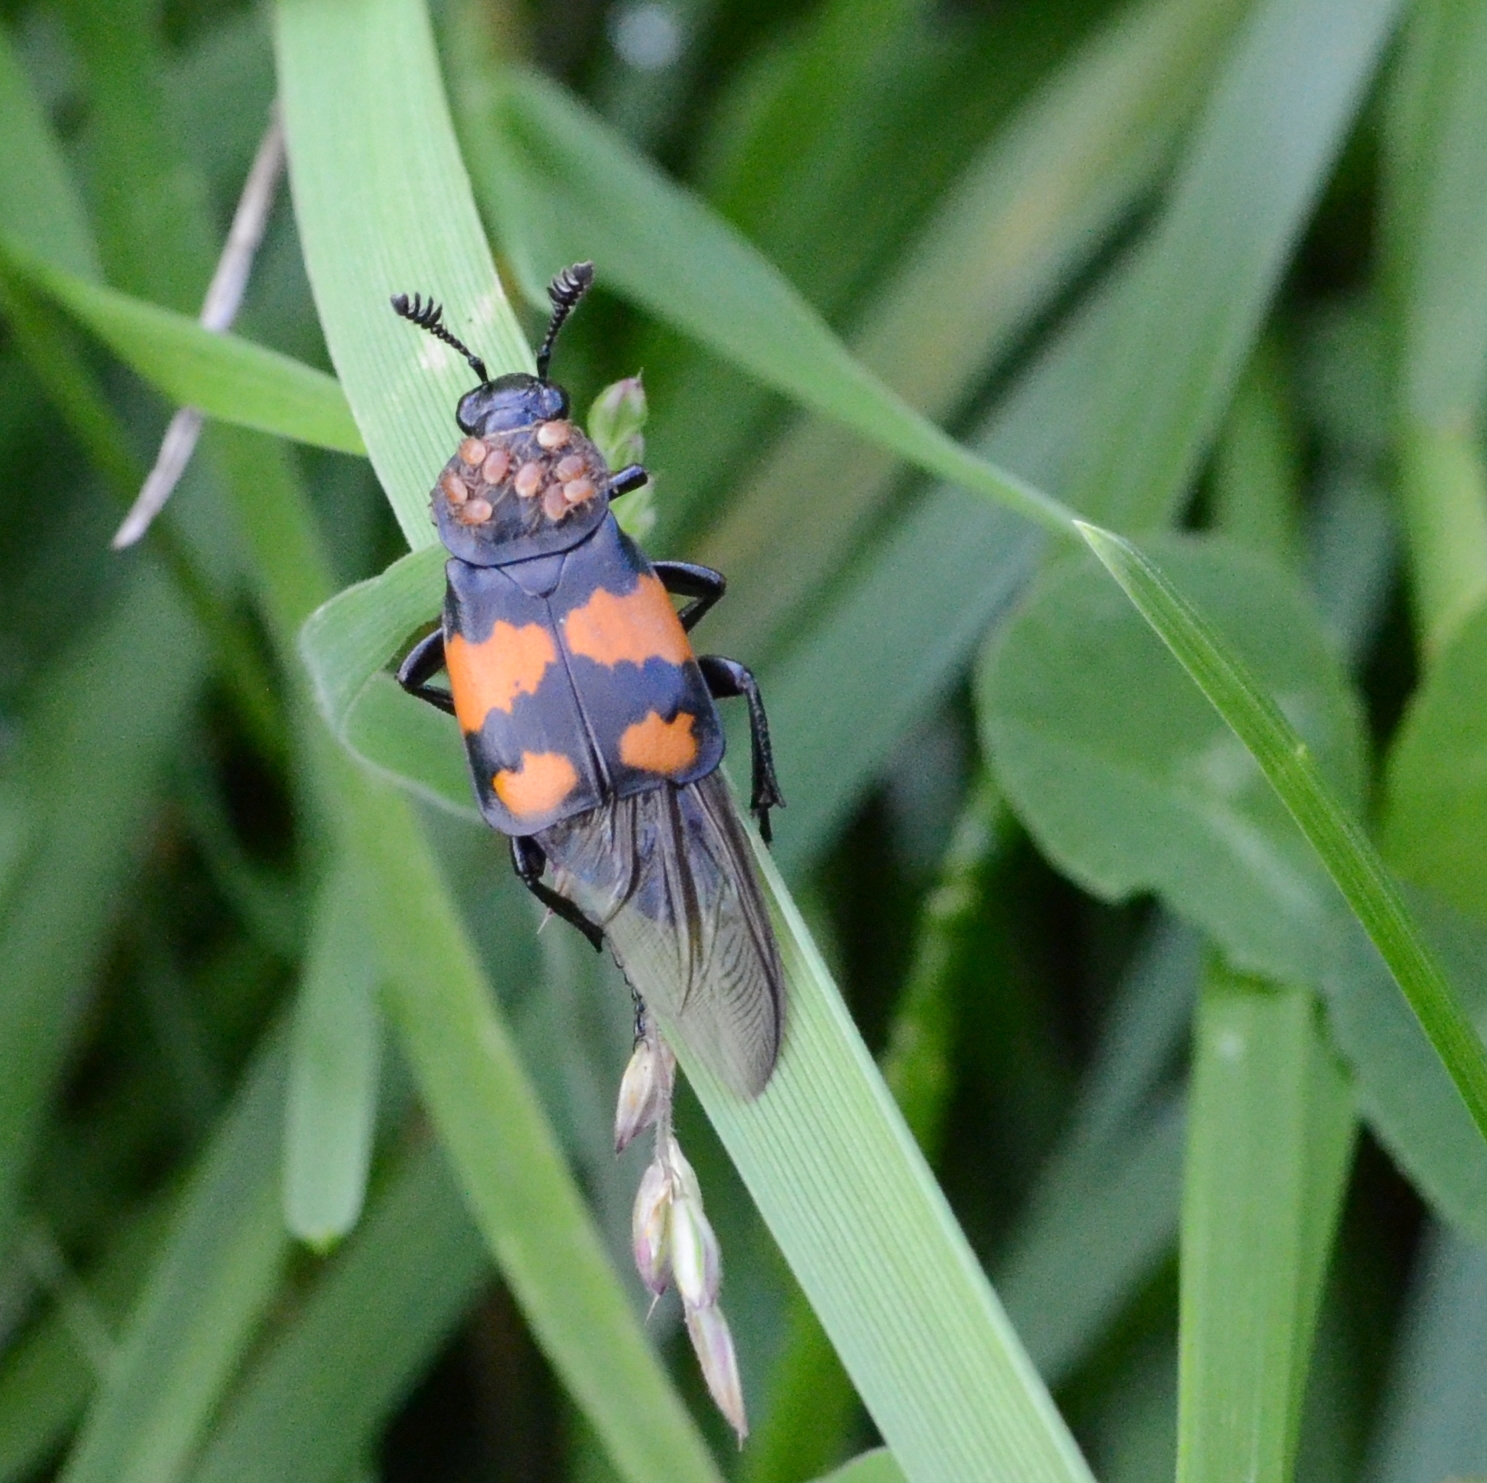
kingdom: Animalia
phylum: Arthropoda
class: Insecta
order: Coleoptera
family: Staphylinidae
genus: Nicrophorus
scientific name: Nicrophorus vespilloides
